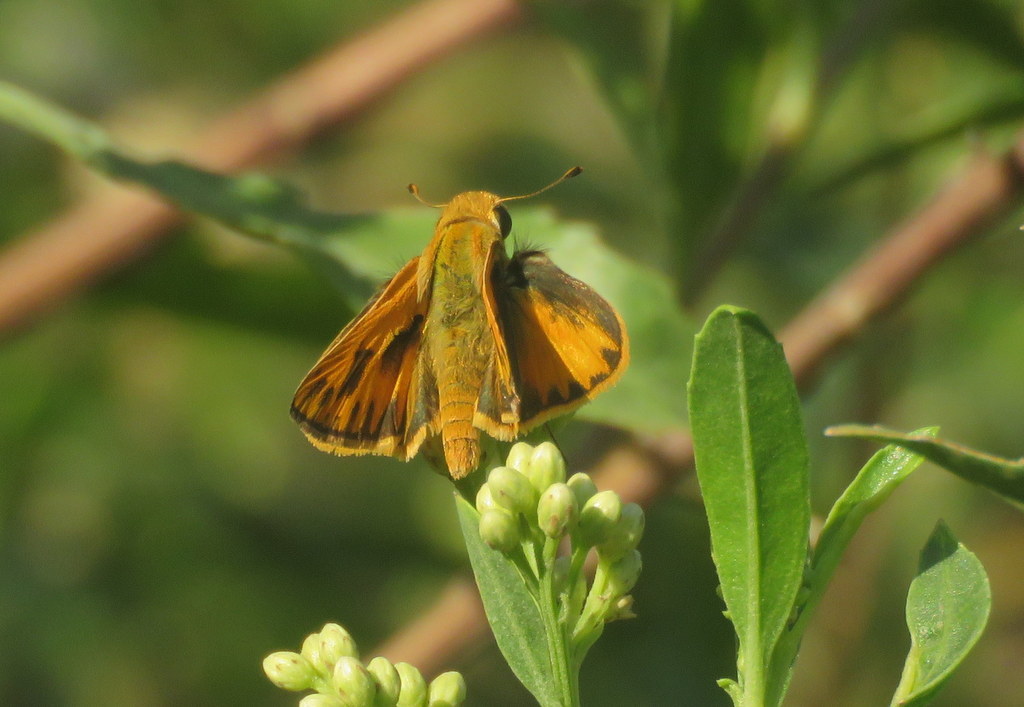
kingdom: Animalia
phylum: Arthropoda
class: Insecta
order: Lepidoptera
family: Hesperiidae
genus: Hylephila
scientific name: Hylephila phyleus
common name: Fiery skipper
